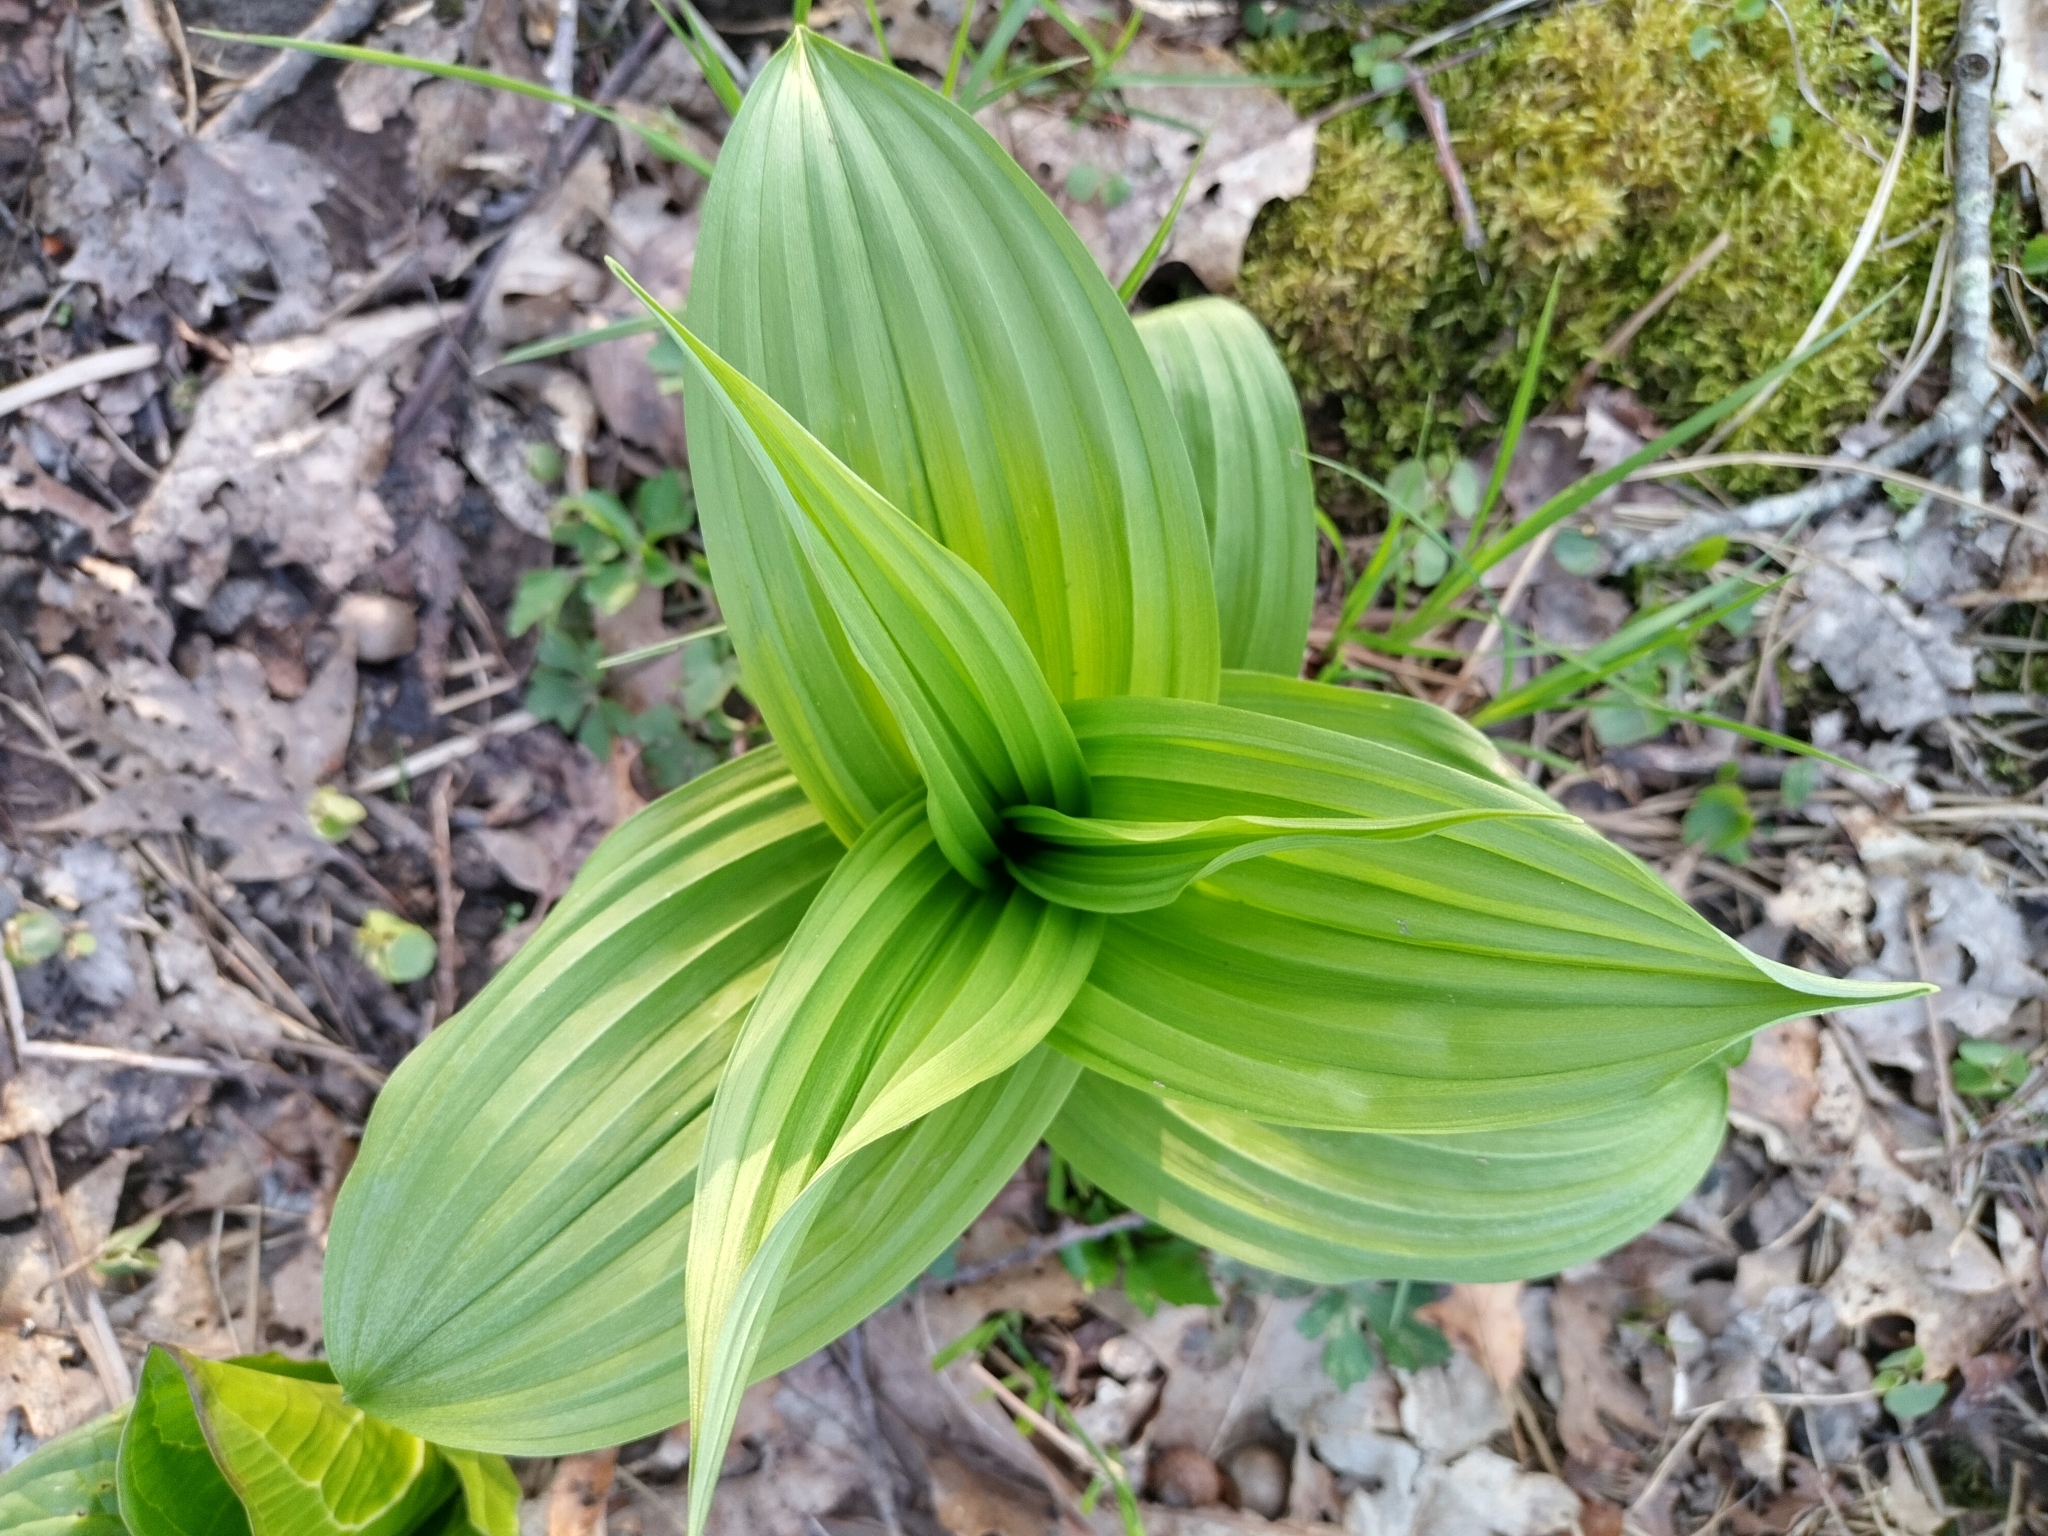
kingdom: Plantae
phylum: Tracheophyta
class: Liliopsida
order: Liliales
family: Melanthiaceae
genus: Veratrum
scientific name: Veratrum viride
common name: American false hellebore
